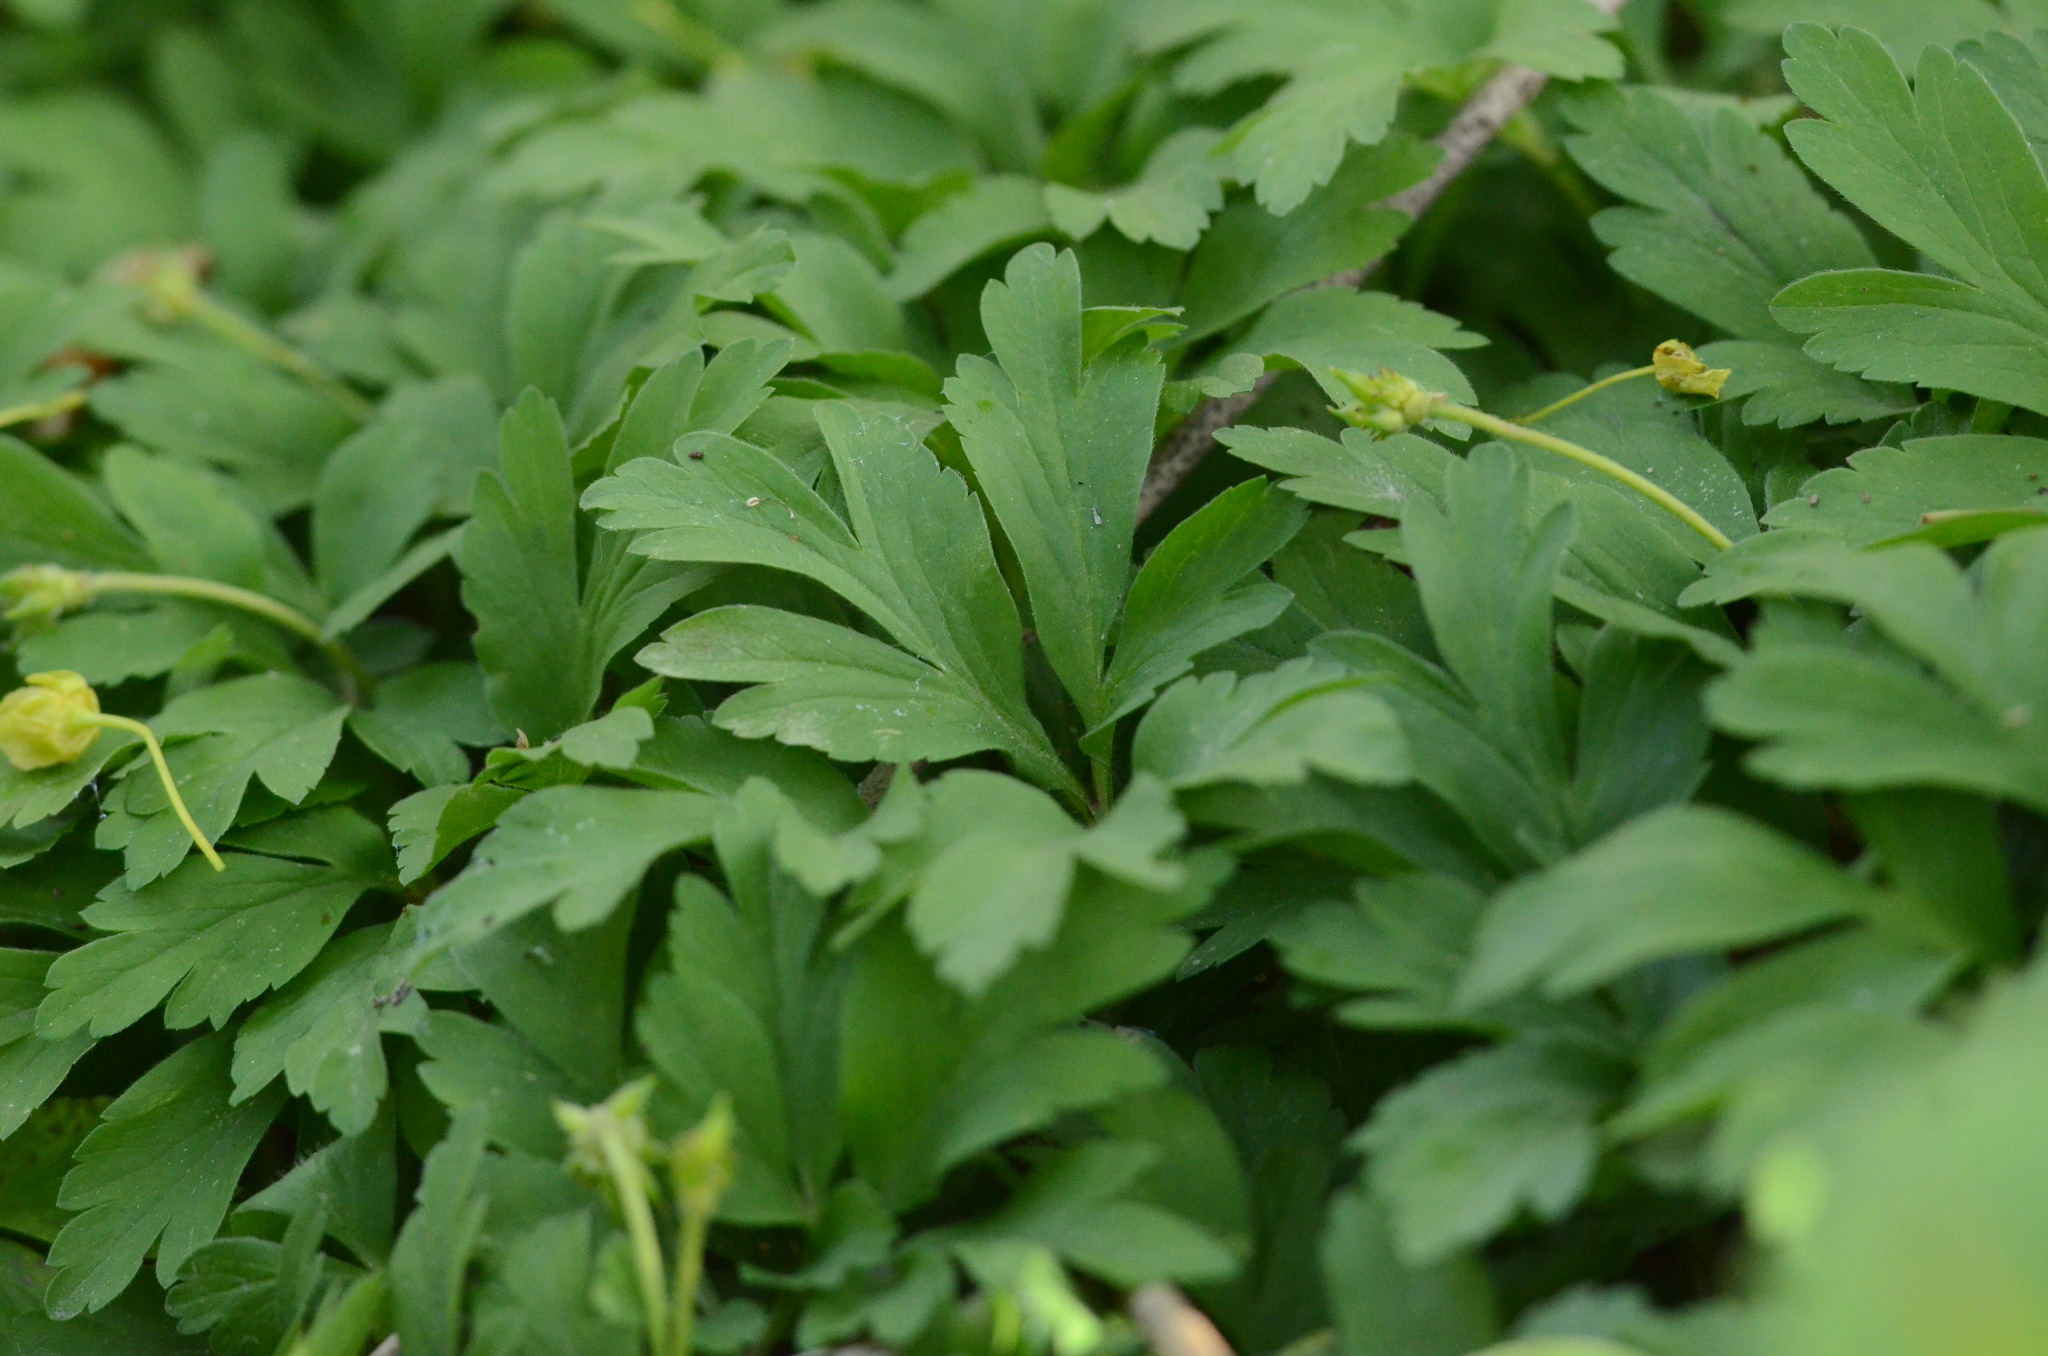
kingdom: Plantae
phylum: Tracheophyta
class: Magnoliopsida
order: Ranunculales
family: Ranunculaceae
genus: Anemone
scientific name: Anemone nemorosa
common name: Wood anemone
